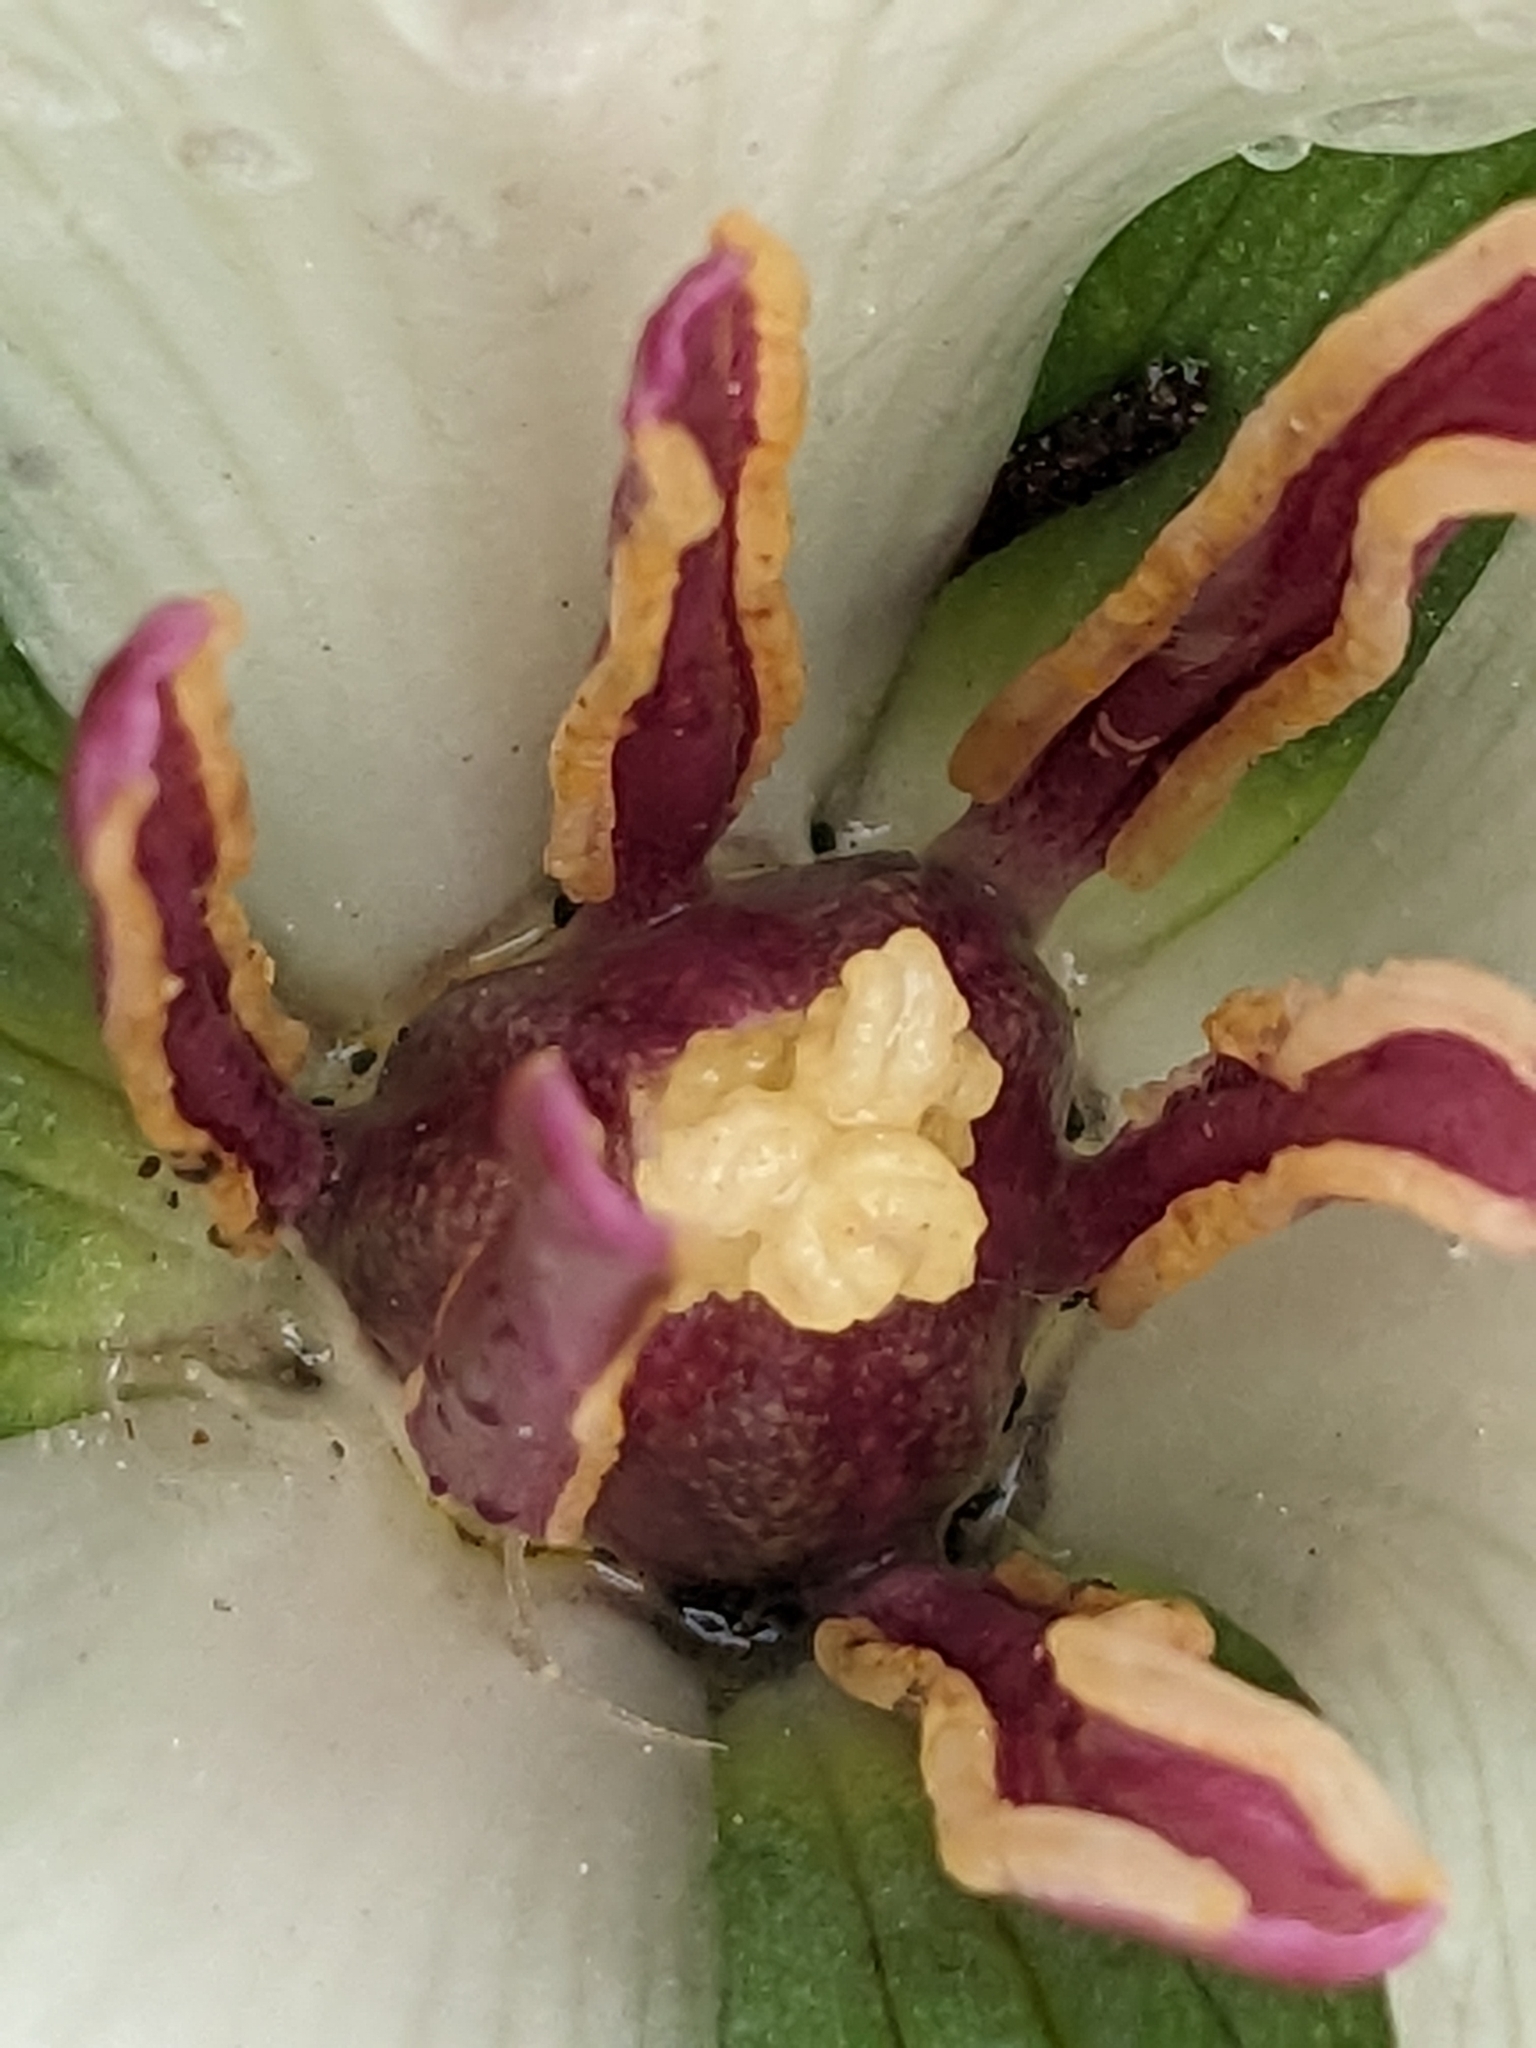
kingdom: Plantae
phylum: Tracheophyta
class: Liliopsida
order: Liliales
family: Melanthiaceae
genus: Trillium
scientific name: Trillium chloropetalum
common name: Giant trillium
